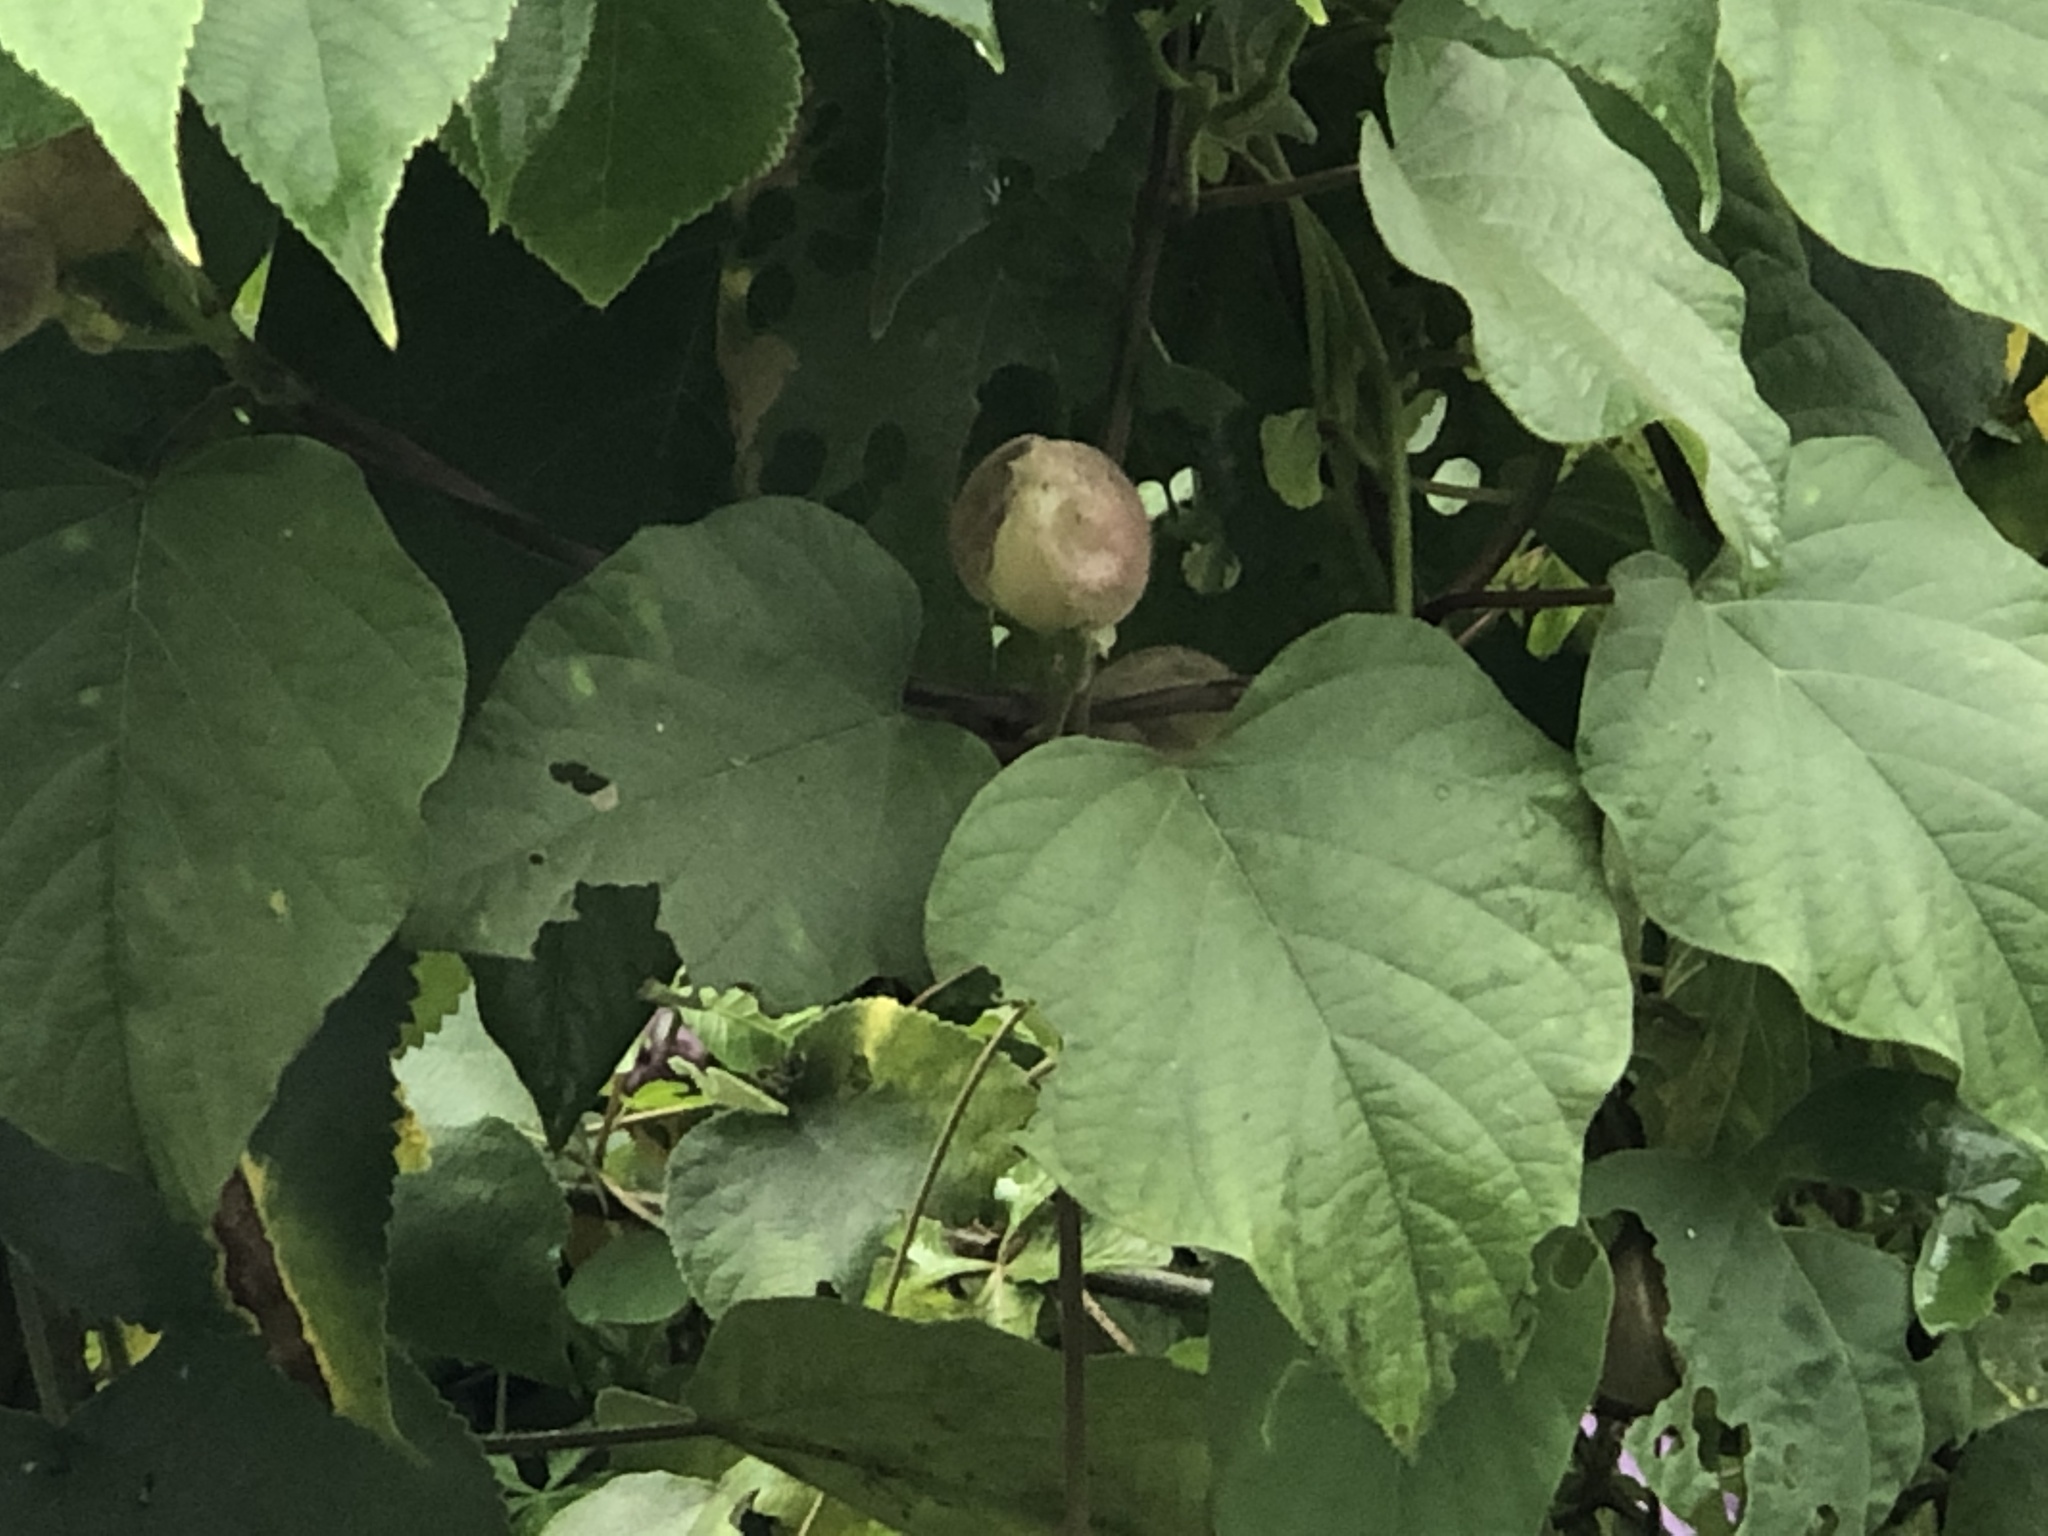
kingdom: Plantae
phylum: Tracheophyta
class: Magnoliopsida
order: Solanales
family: Convolvulaceae
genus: Operculina
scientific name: Operculina turpethum
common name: Transparent wood-rose
